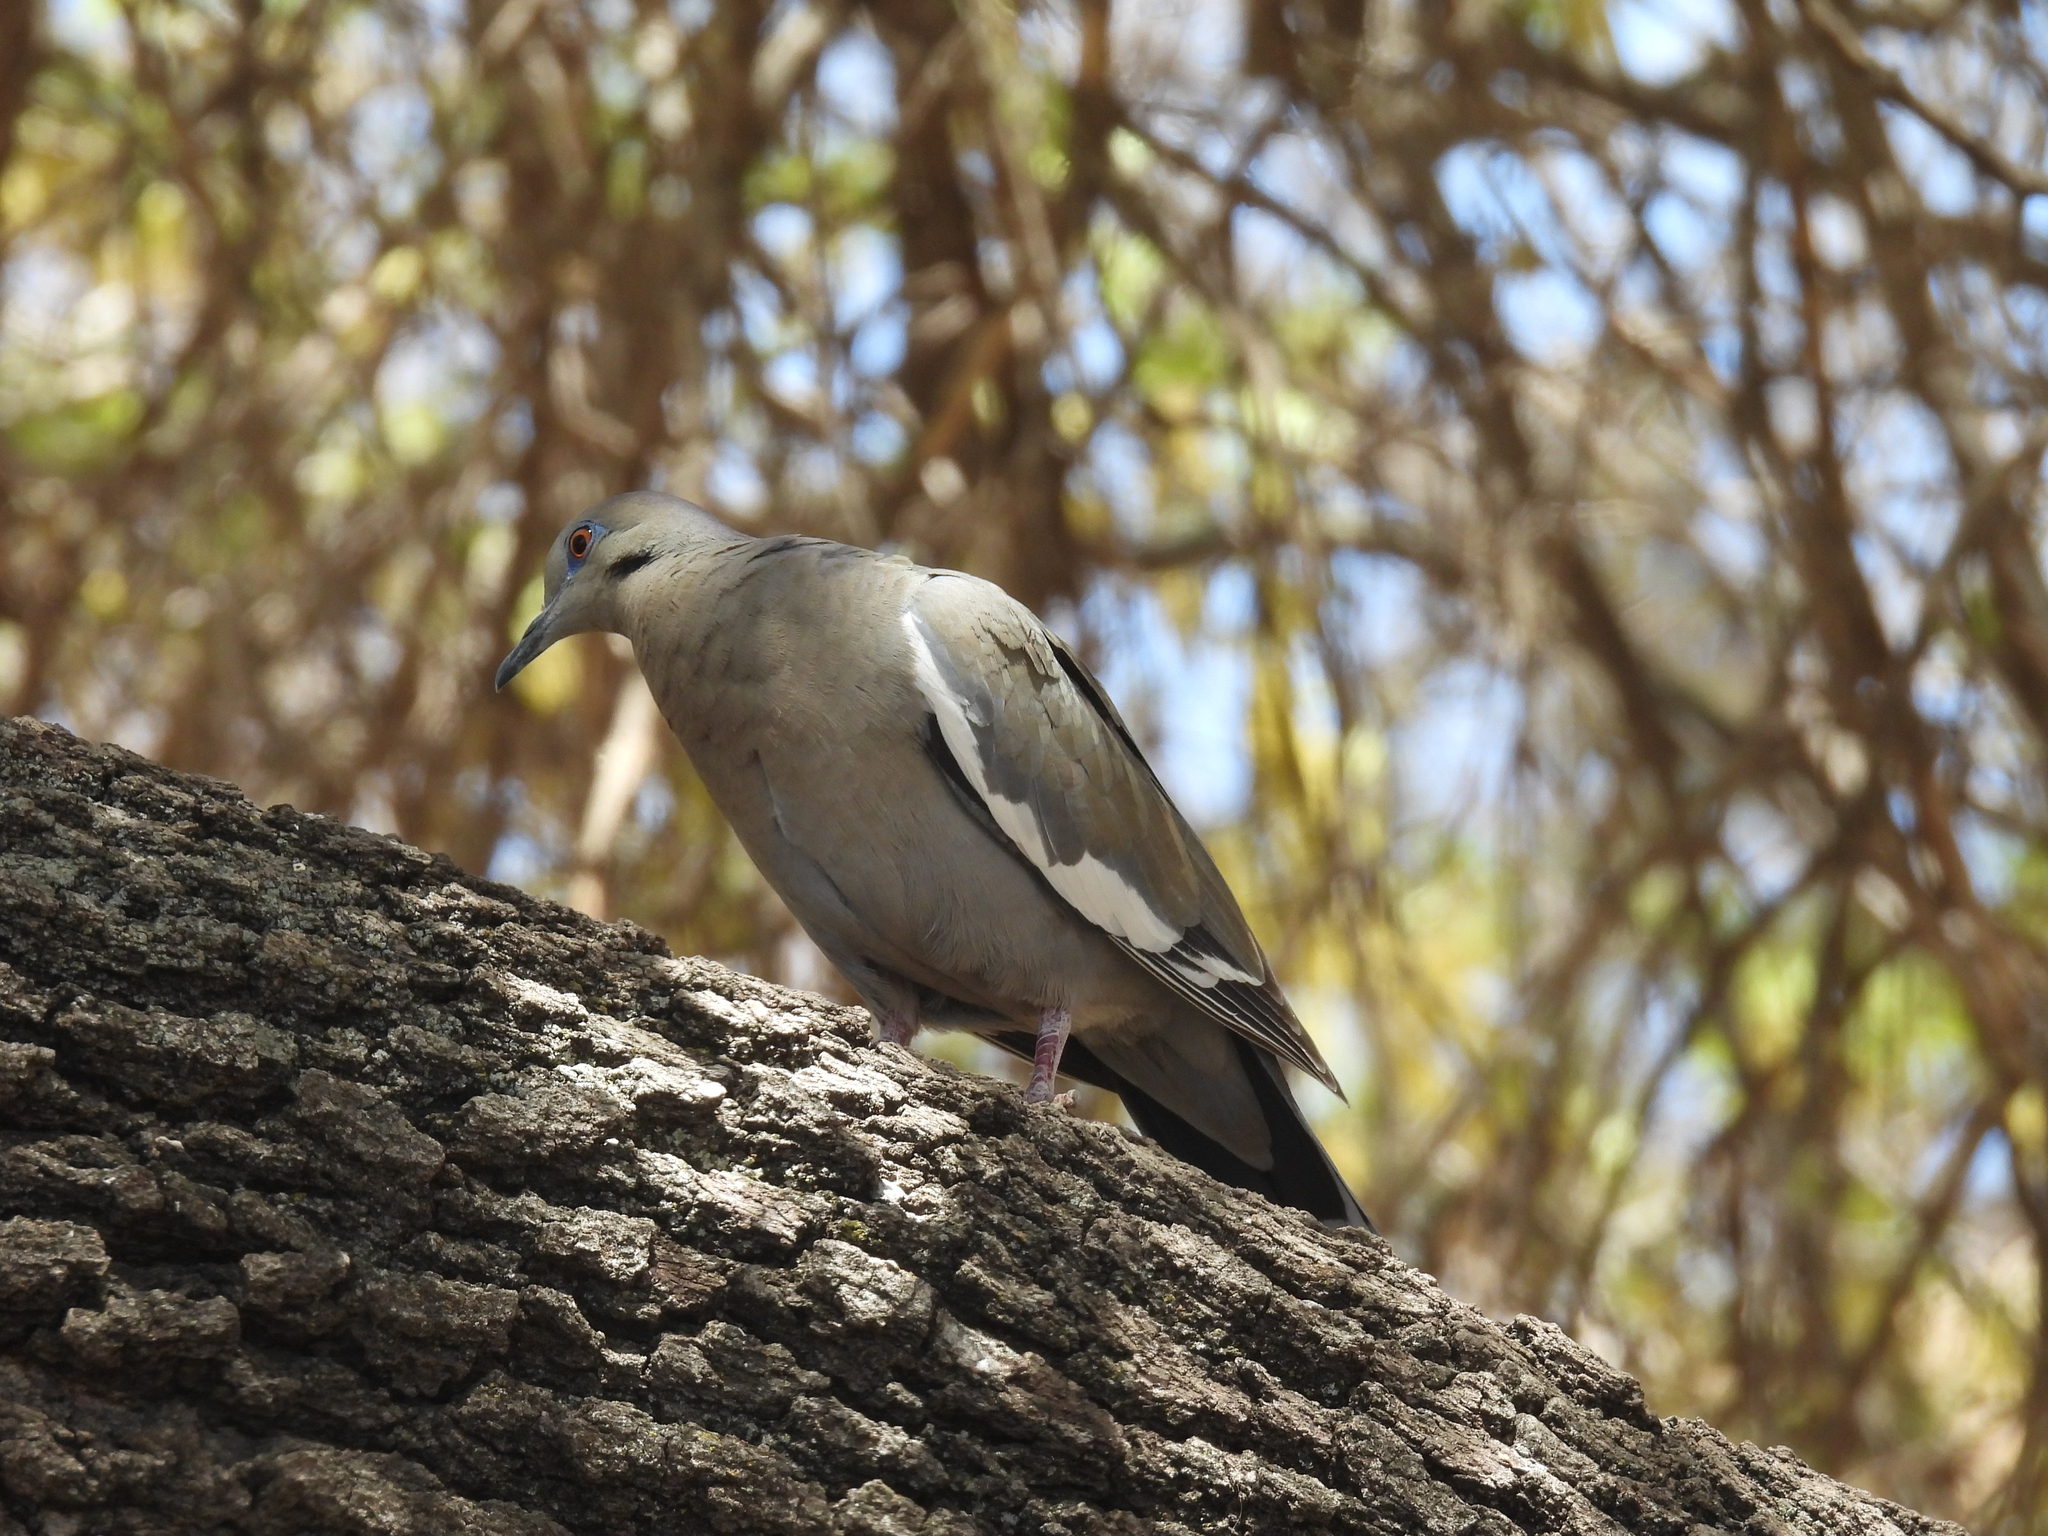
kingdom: Animalia
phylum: Chordata
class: Aves
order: Columbiformes
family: Columbidae
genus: Zenaida
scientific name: Zenaida asiatica
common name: White-winged dove
